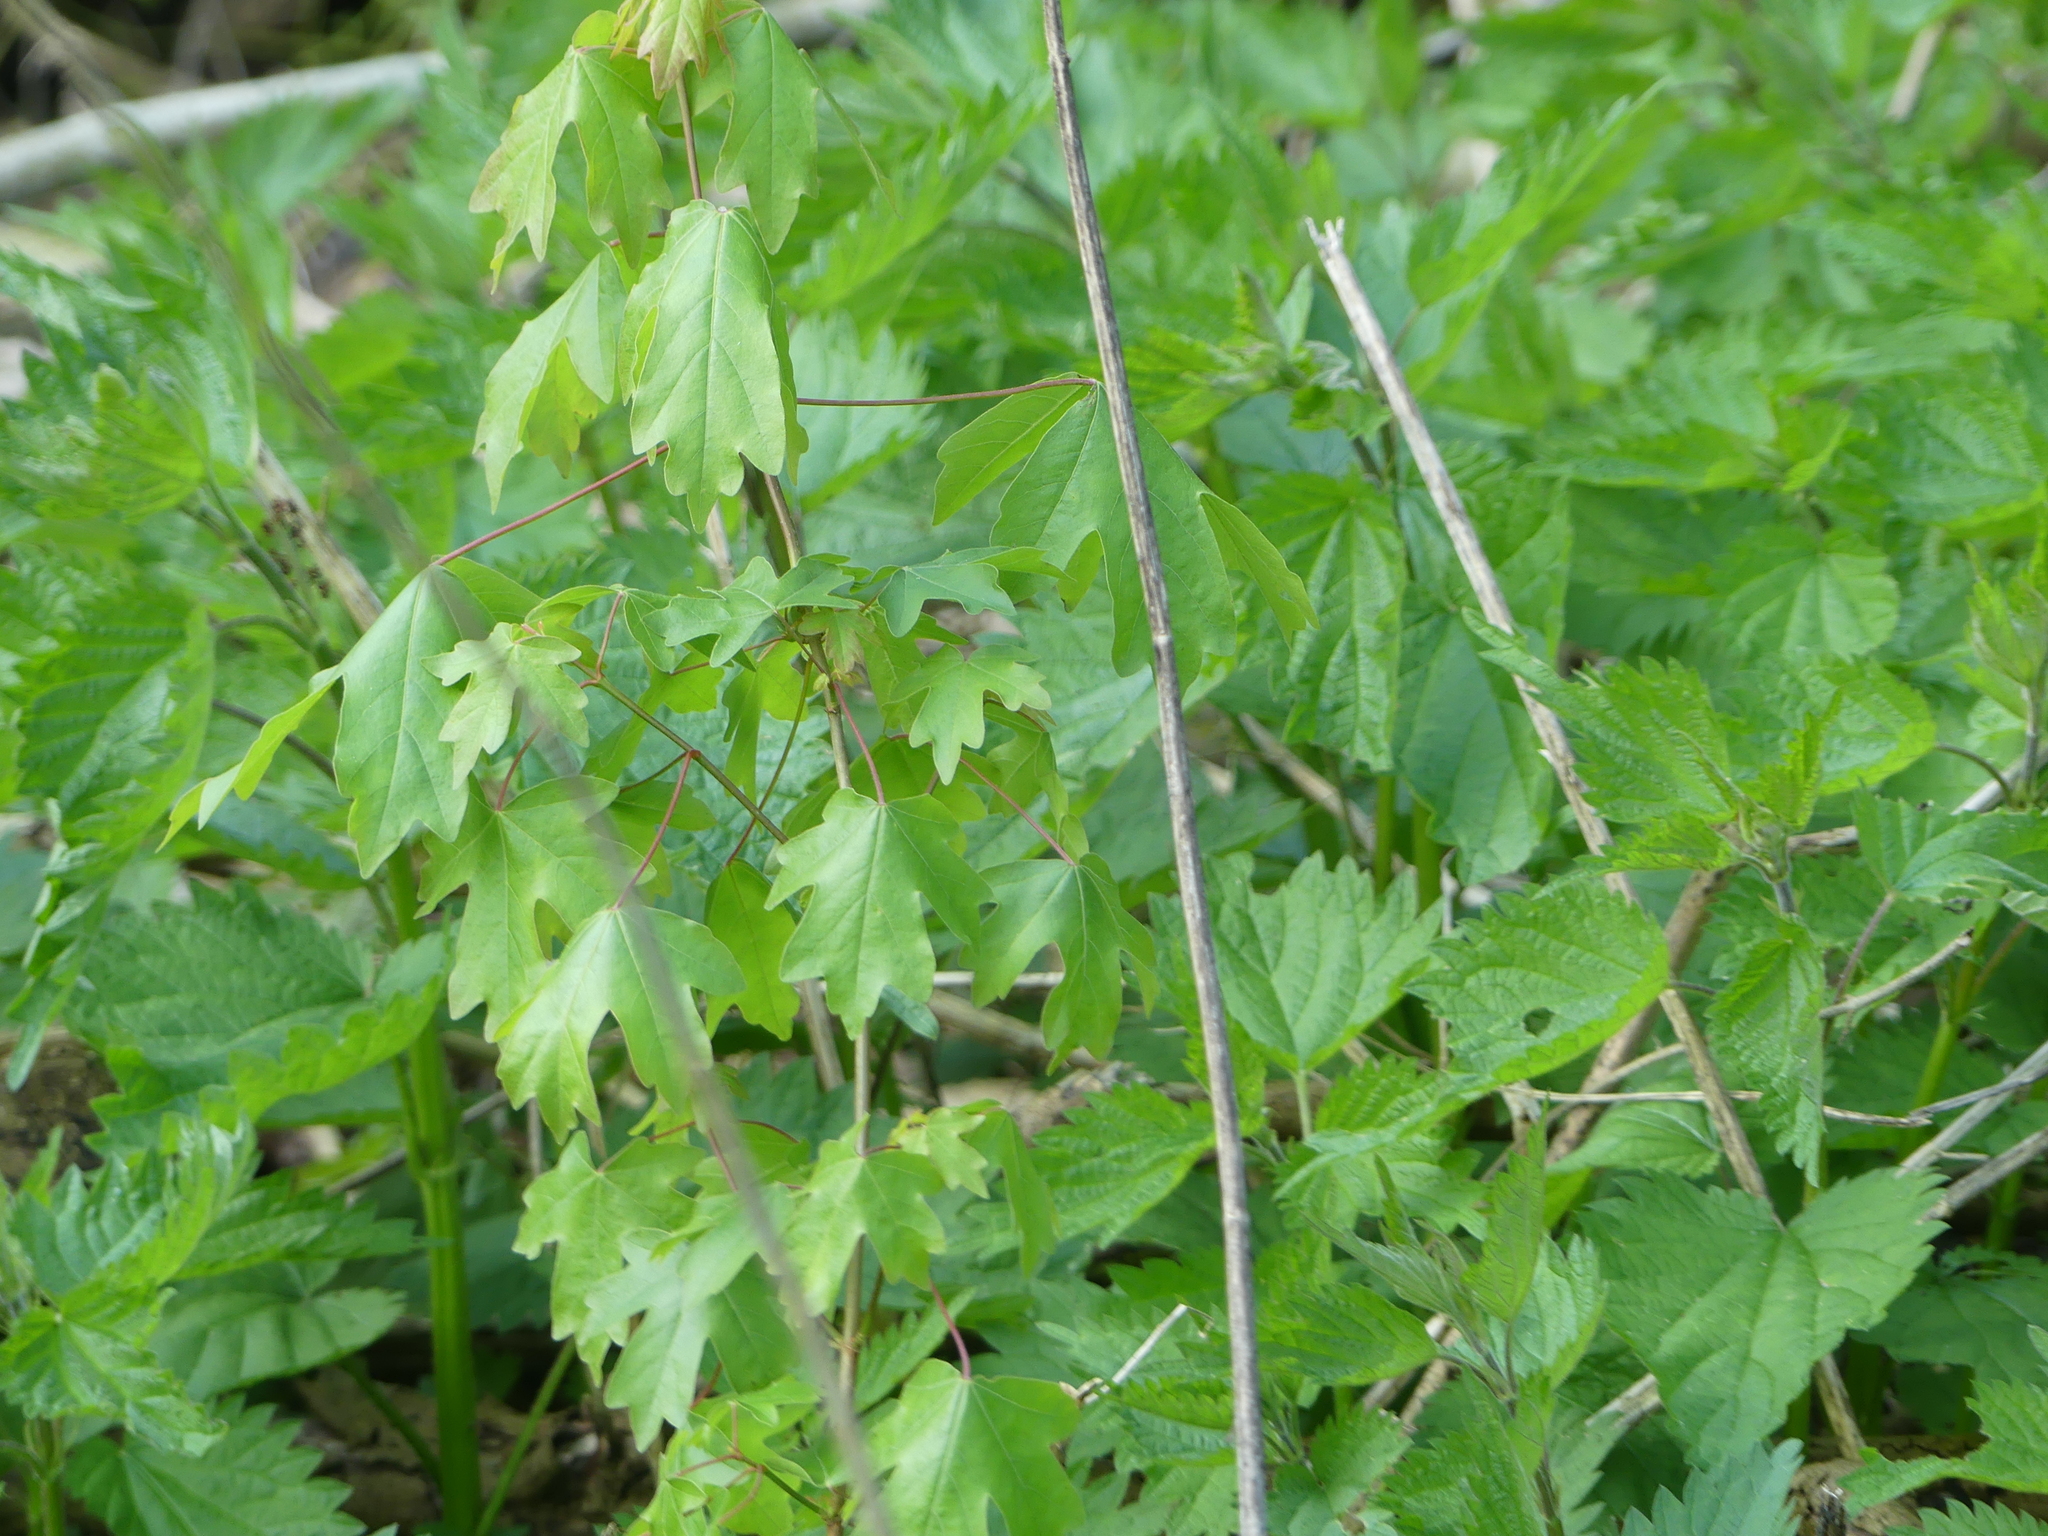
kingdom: Plantae
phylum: Tracheophyta
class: Magnoliopsida
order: Sapindales
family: Sapindaceae
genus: Acer
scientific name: Acer campestre
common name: Field maple
